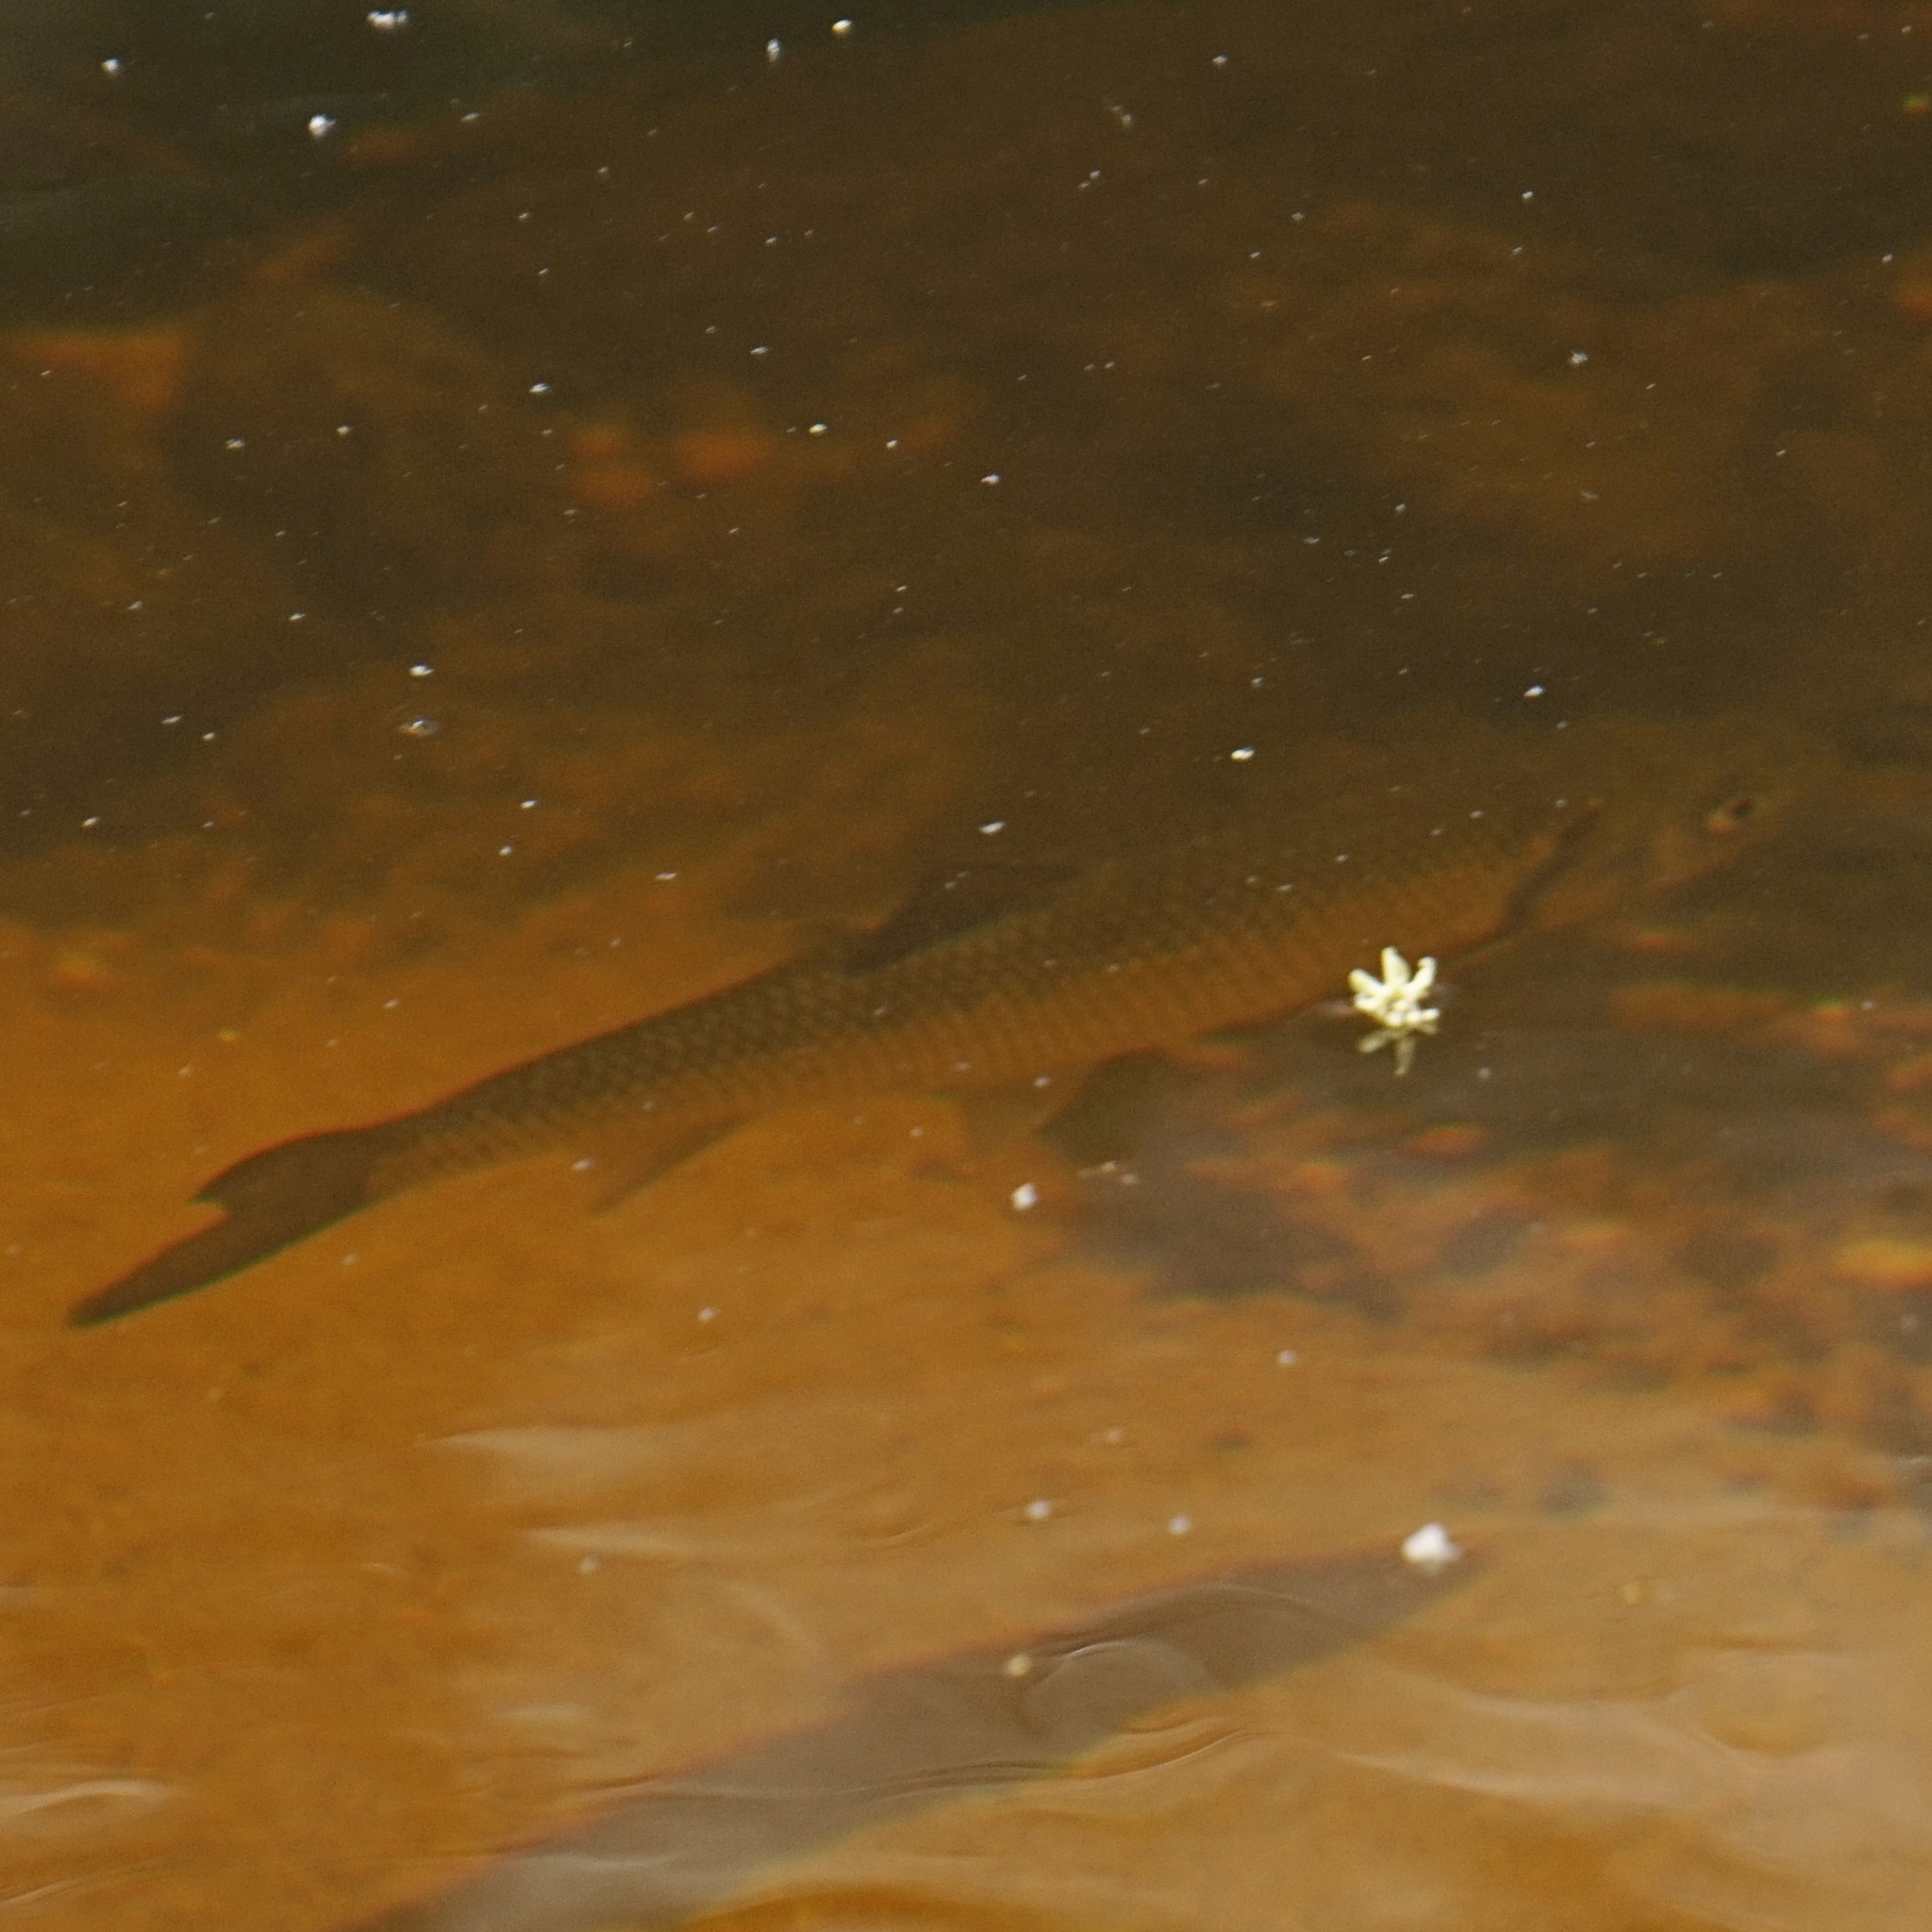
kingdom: Animalia
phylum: Chordata
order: Cypriniformes
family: Cyprinidae
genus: Semotilus
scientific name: Semotilus corporalis
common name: Fallfish
